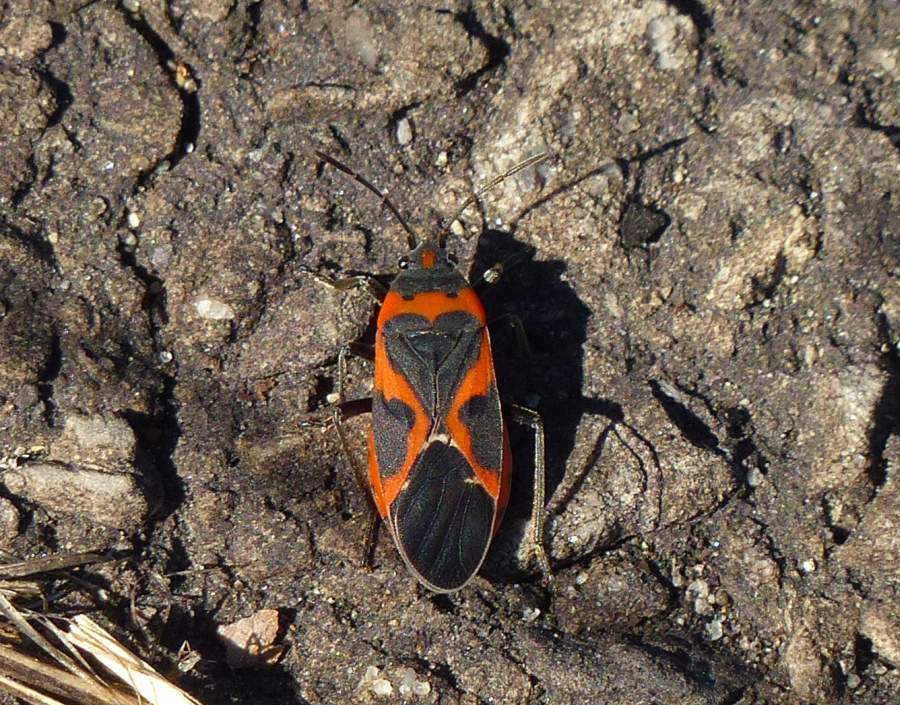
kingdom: Animalia
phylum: Arthropoda
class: Insecta
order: Hemiptera
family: Lygaeidae
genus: Lygaeus
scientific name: Lygaeus kalmii
